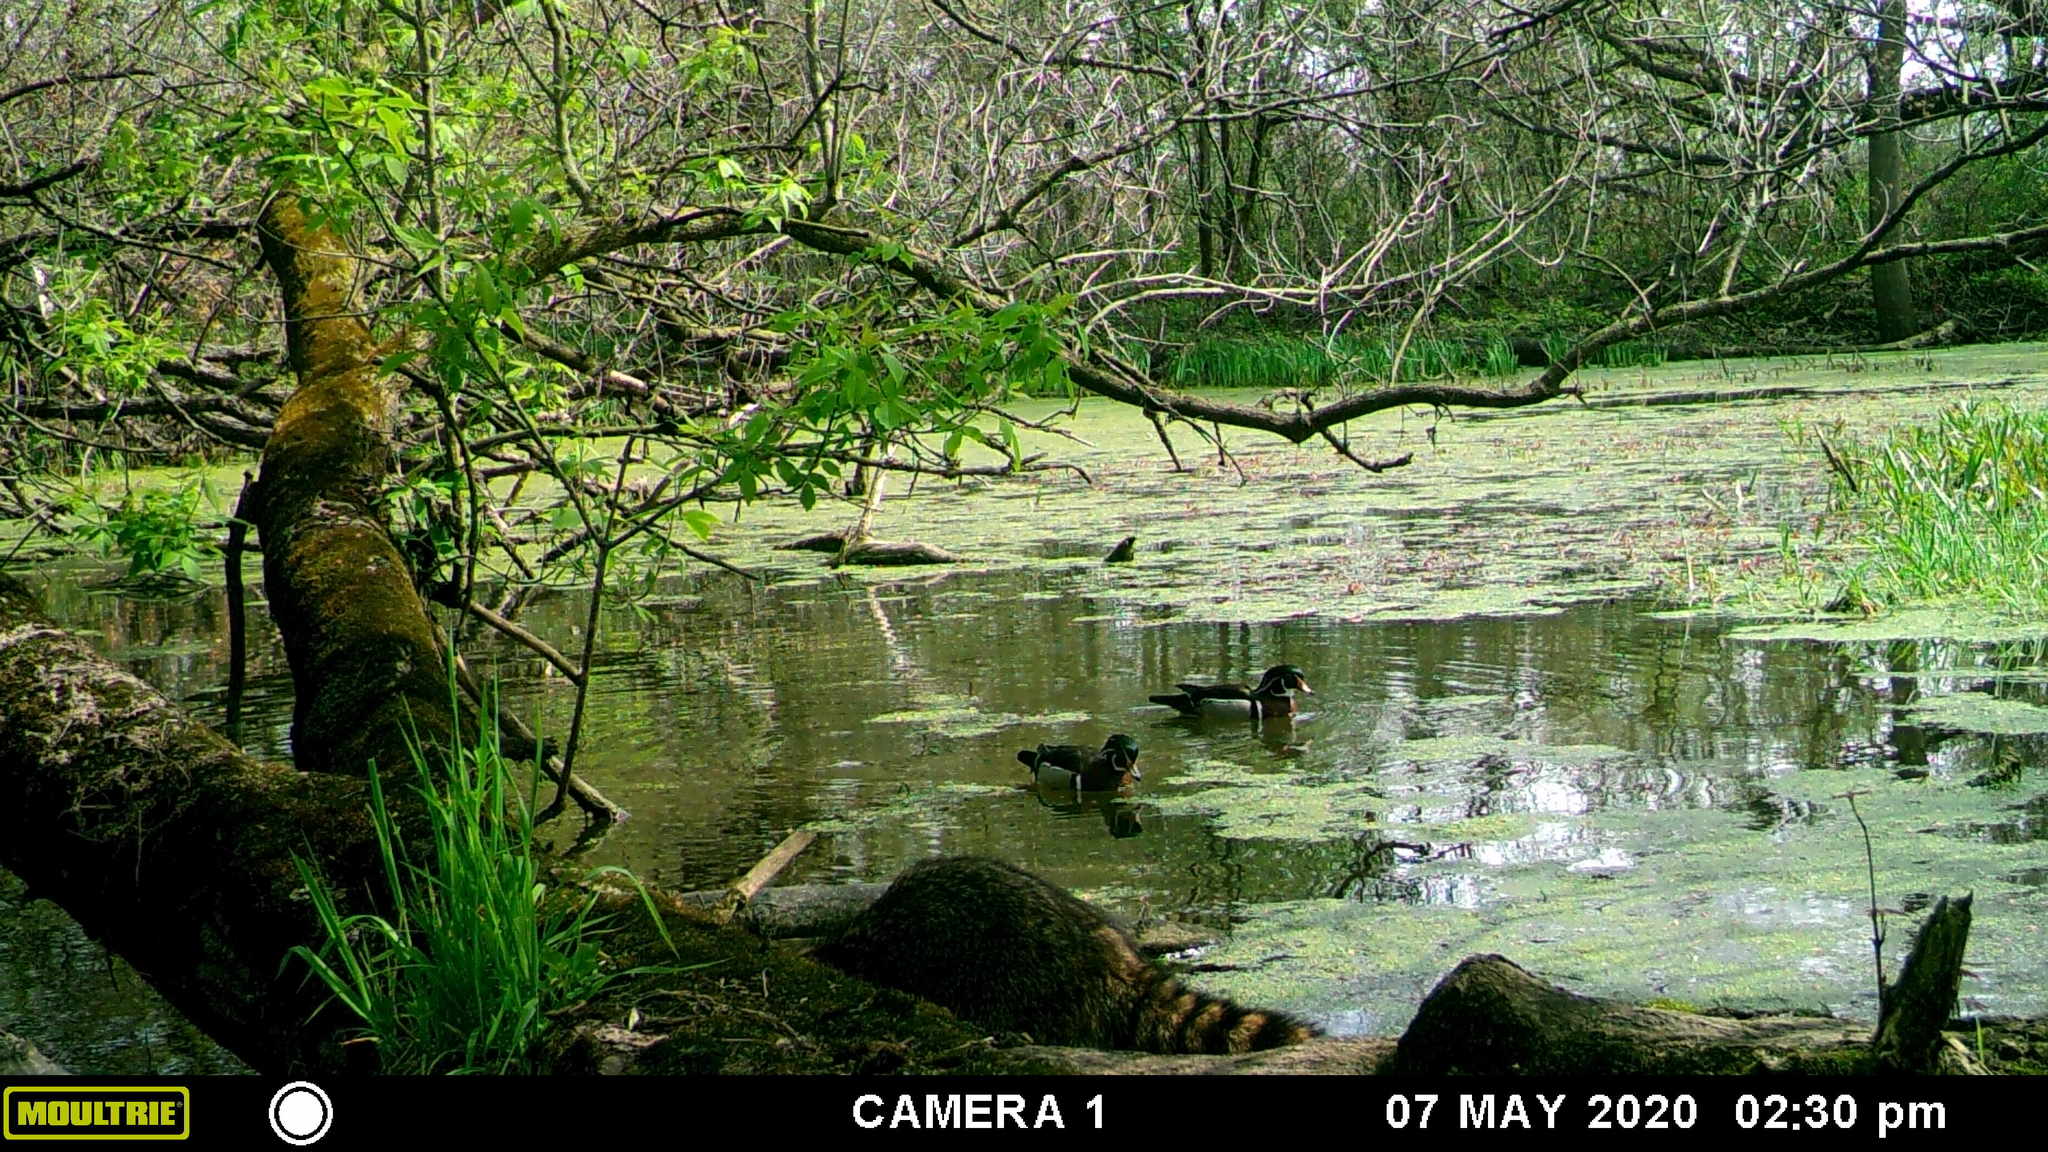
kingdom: Animalia
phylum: Chordata
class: Mammalia
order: Carnivora
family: Procyonidae
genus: Procyon
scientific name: Procyon lotor
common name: Raccoon
